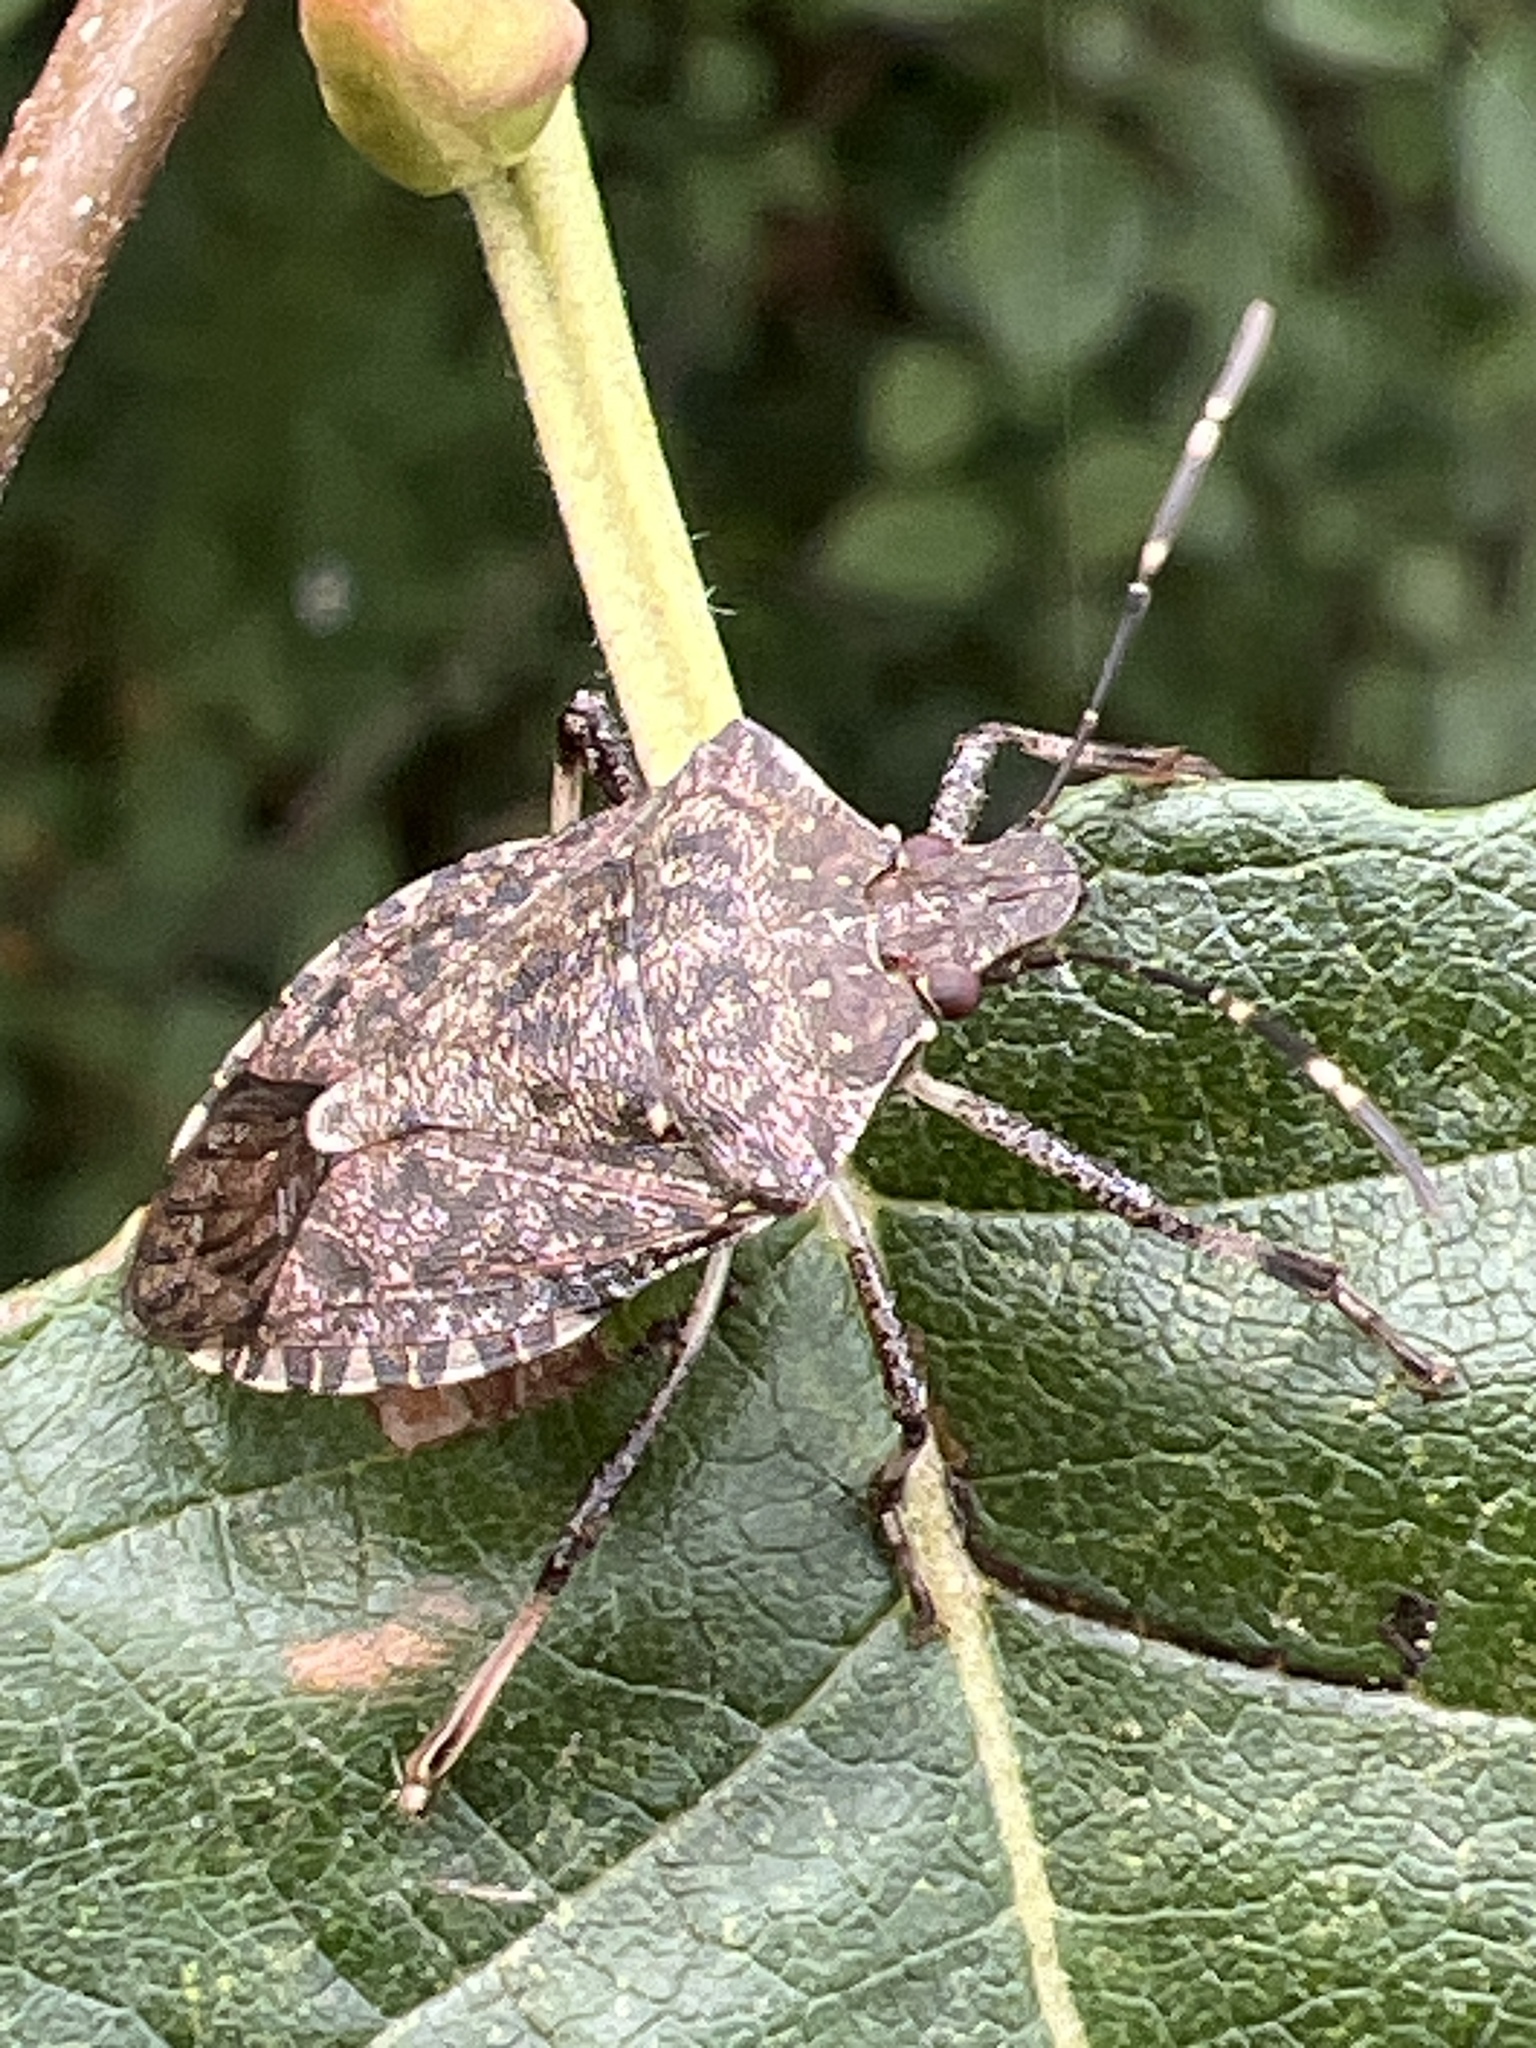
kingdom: Animalia
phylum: Arthropoda
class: Insecta
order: Hemiptera
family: Pentatomidae
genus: Halyomorpha
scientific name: Halyomorpha halys
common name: Brown marmorated stink bug
